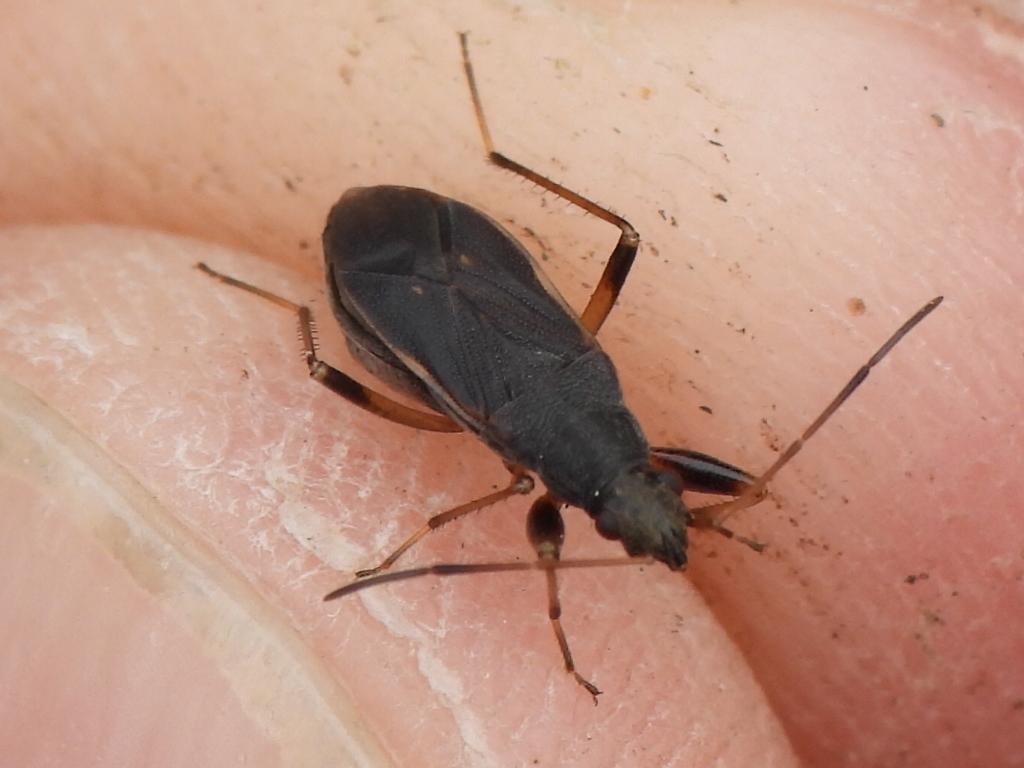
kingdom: Animalia
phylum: Arthropoda
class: Insecta
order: Hemiptera
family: Rhyparochromidae
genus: Perigenes
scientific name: Perigenes similis
